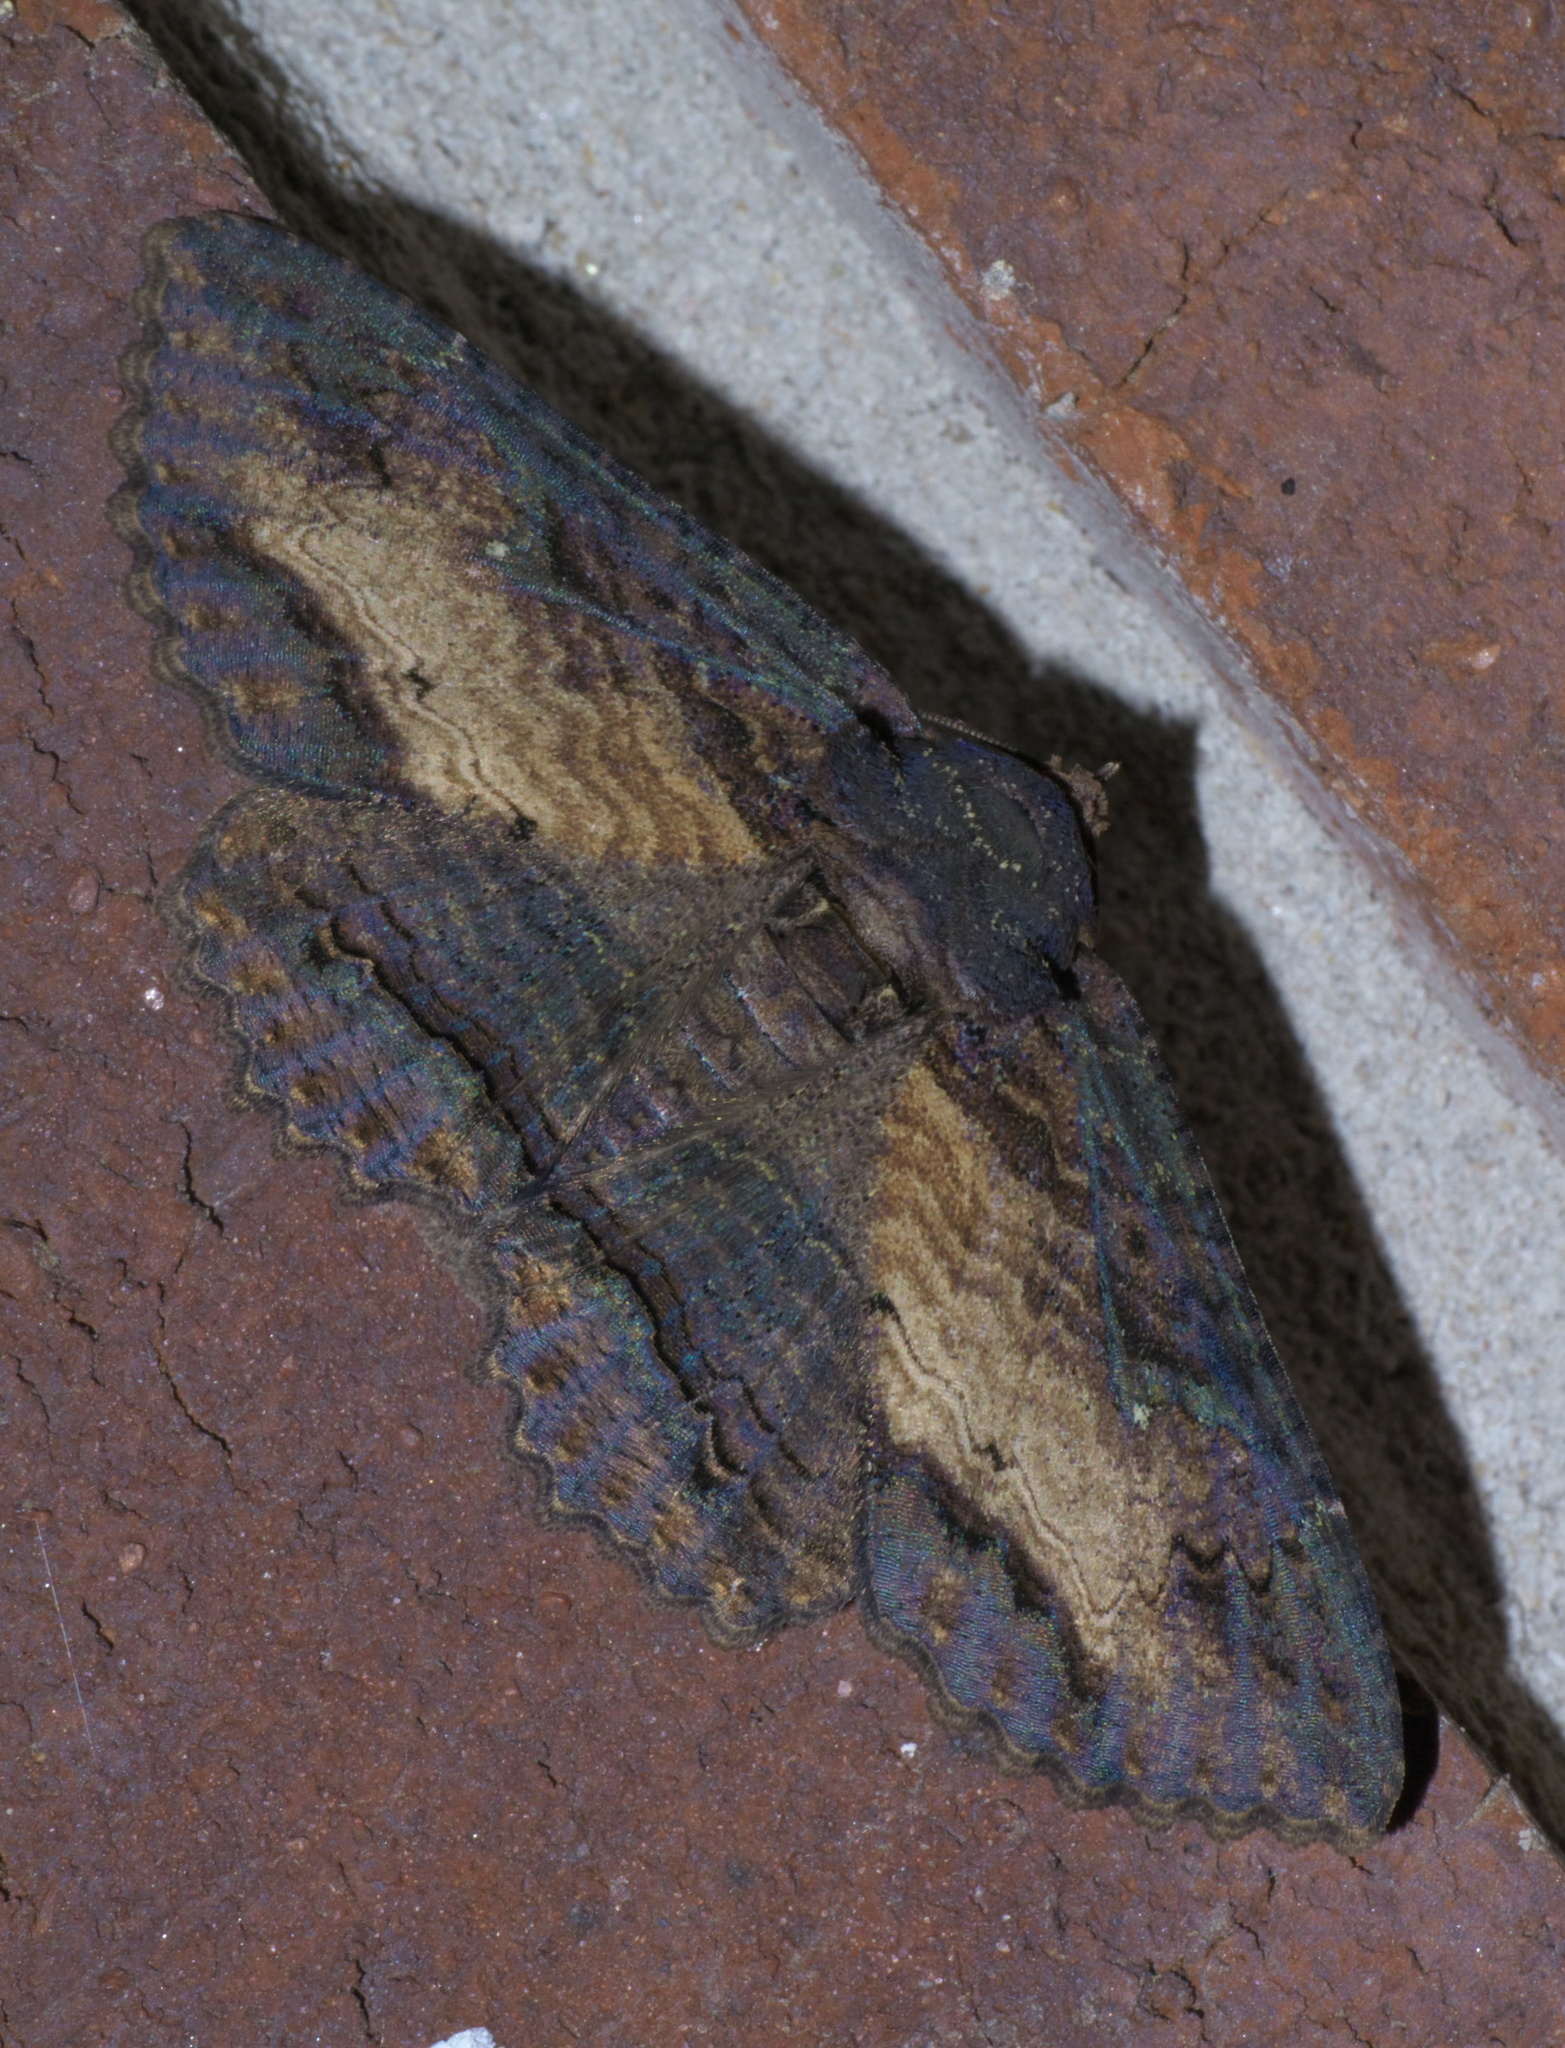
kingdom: Animalia
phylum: Arthropoda
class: Insecta
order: Lepidoptera
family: Erebidae
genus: Zale
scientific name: Zale lunata
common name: Lunate zale moth
